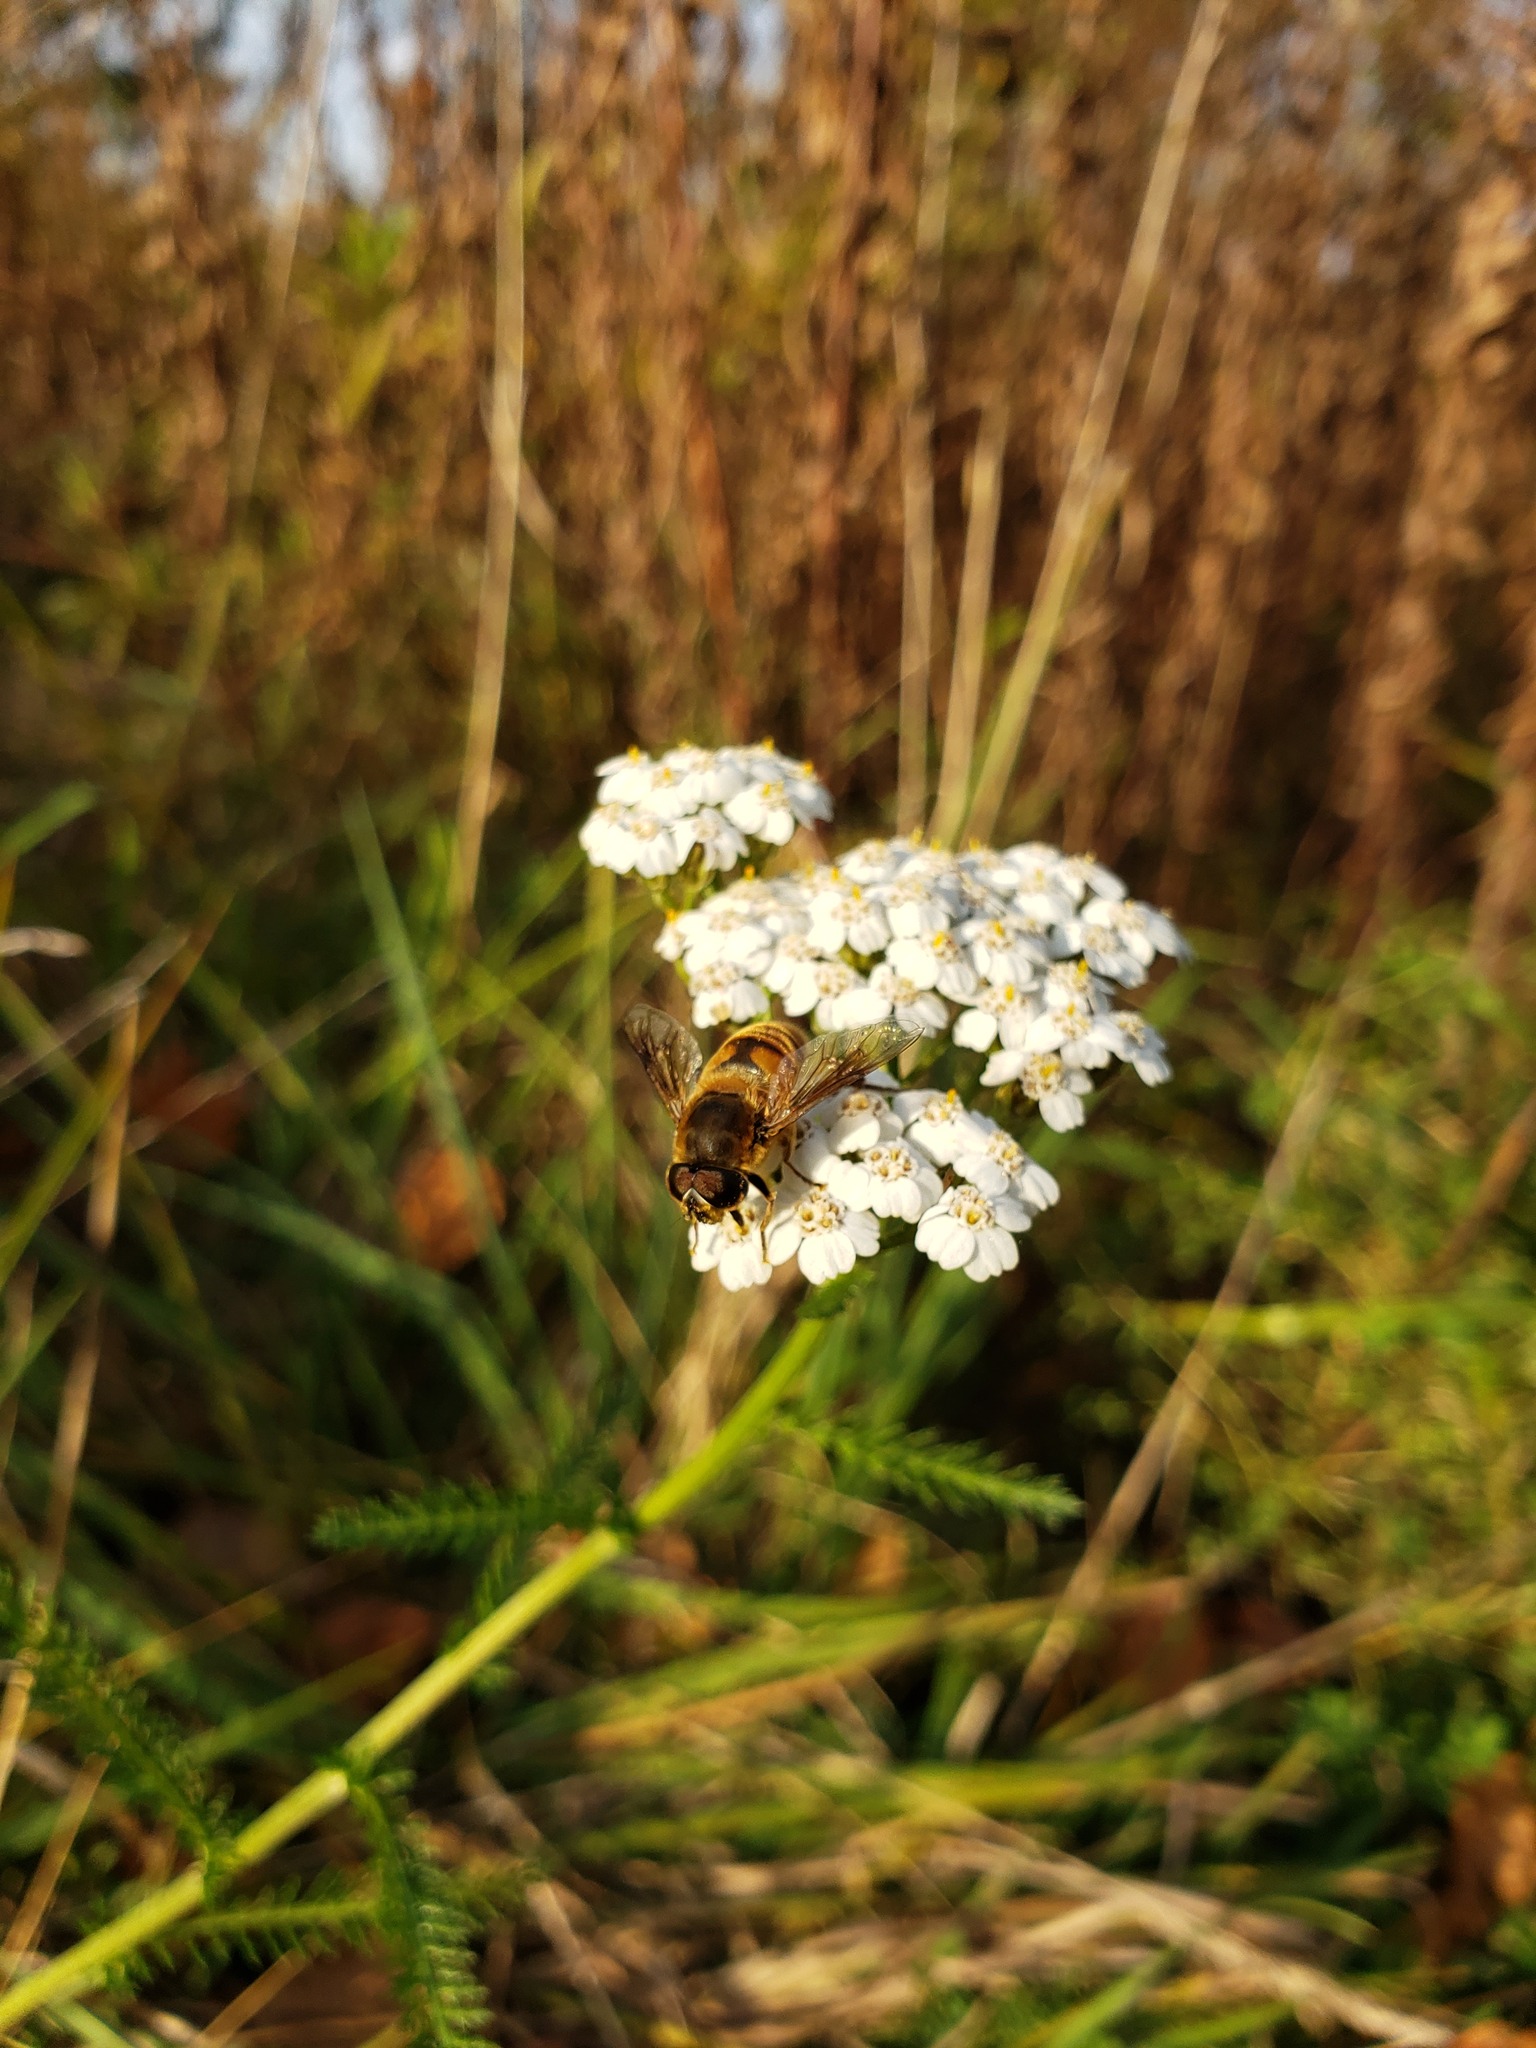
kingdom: Animalia
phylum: Arthropoda
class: Insecta
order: Diptera
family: Syrphidae
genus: Eristalis
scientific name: Eristalis tenax
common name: Drone fly
